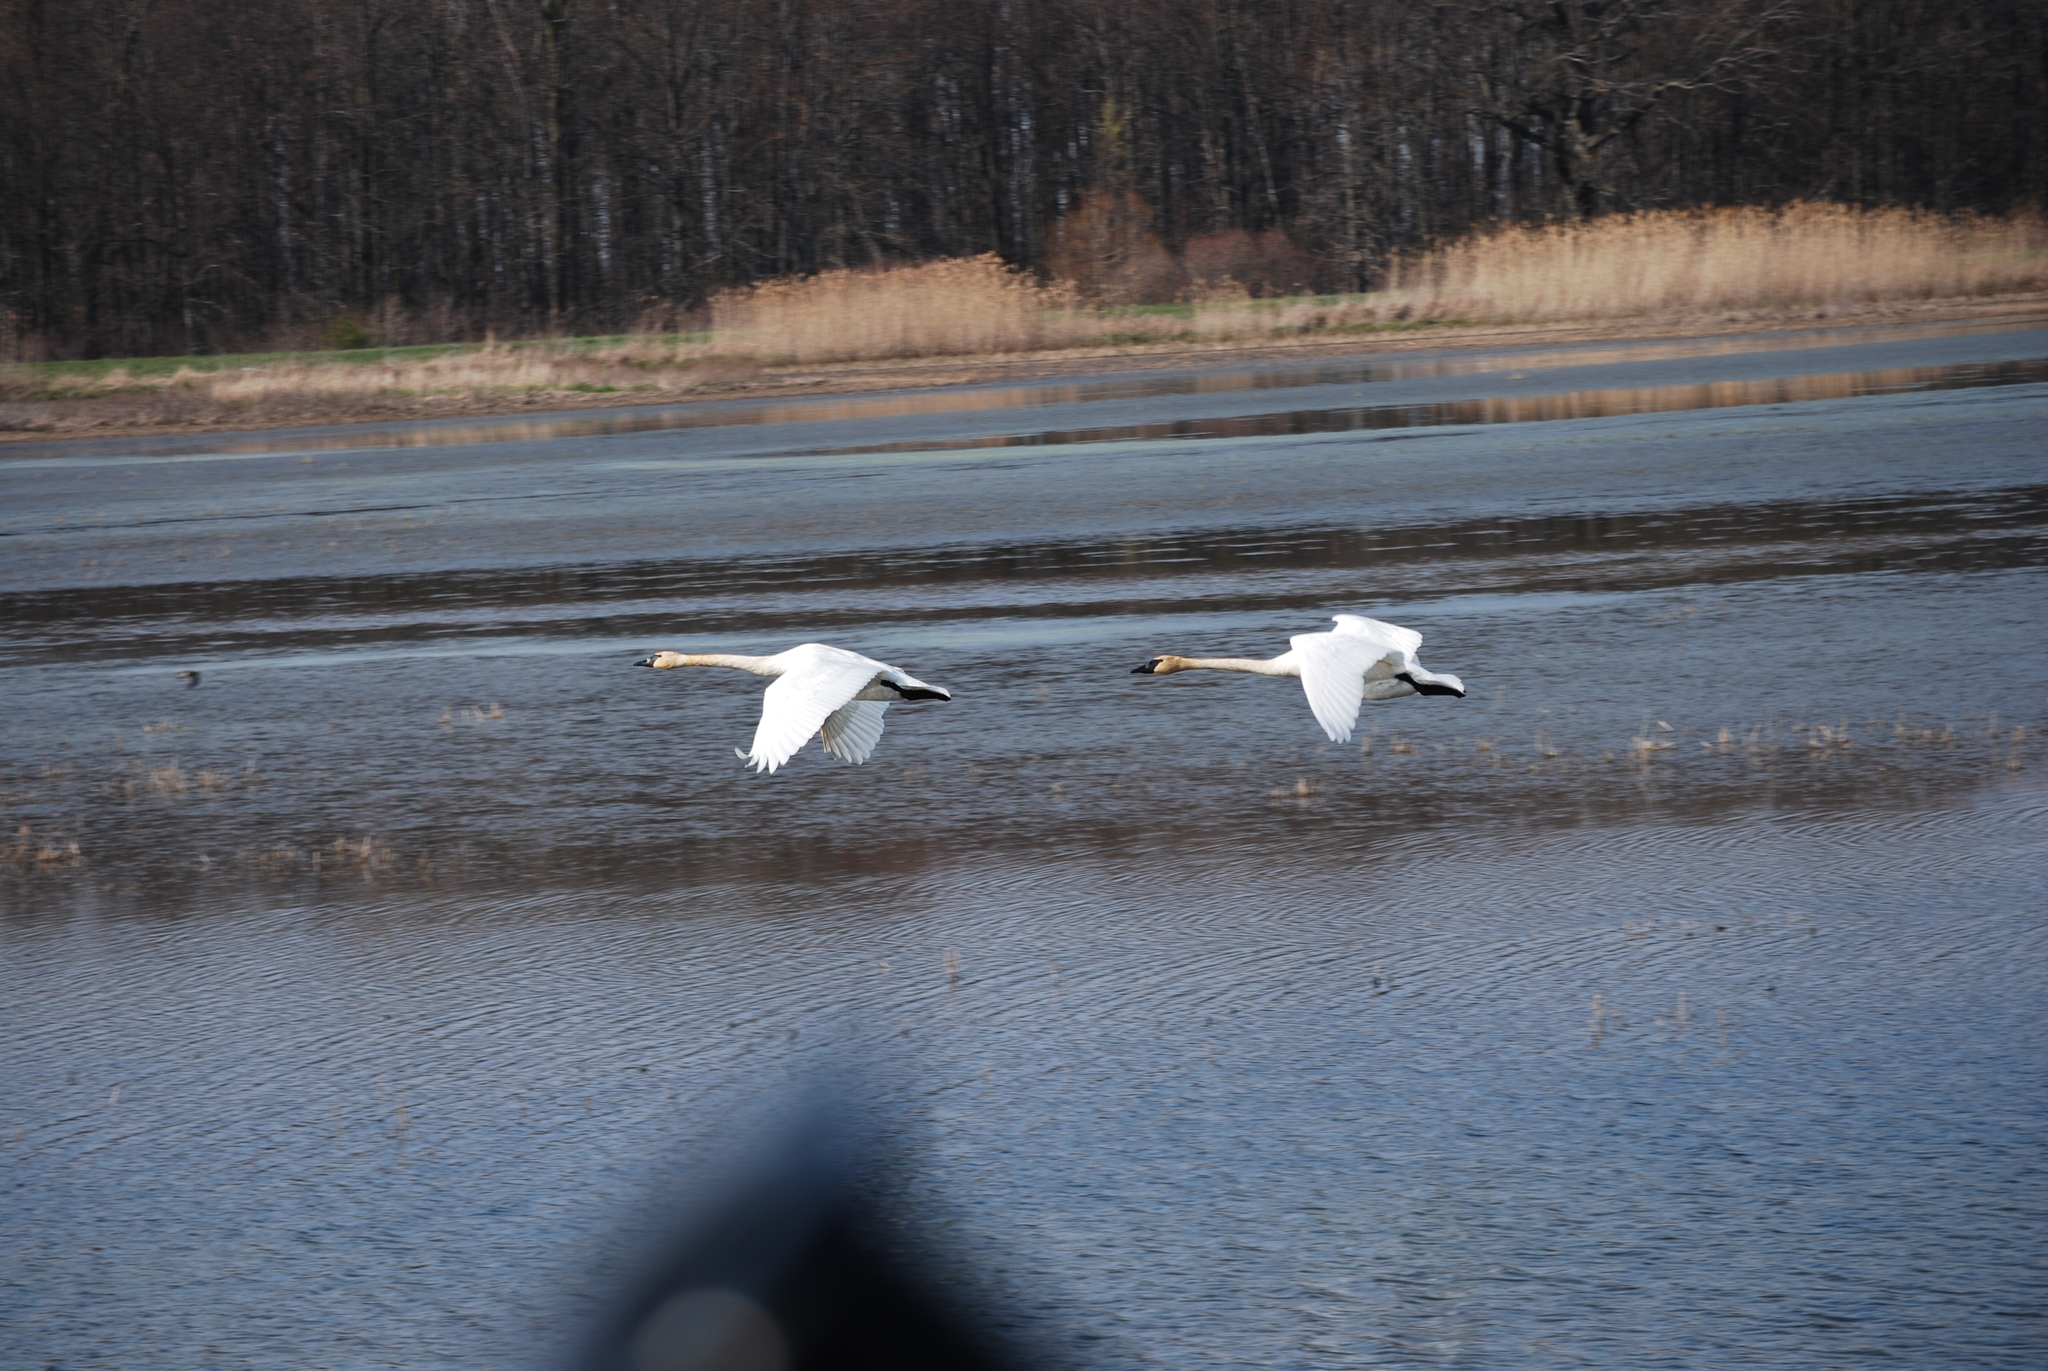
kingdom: Animalia
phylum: Chordata
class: Aves
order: Anseriformes
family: Anatidae
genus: Cygnus
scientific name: Cygnus buccinator
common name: Trumpeter swan
